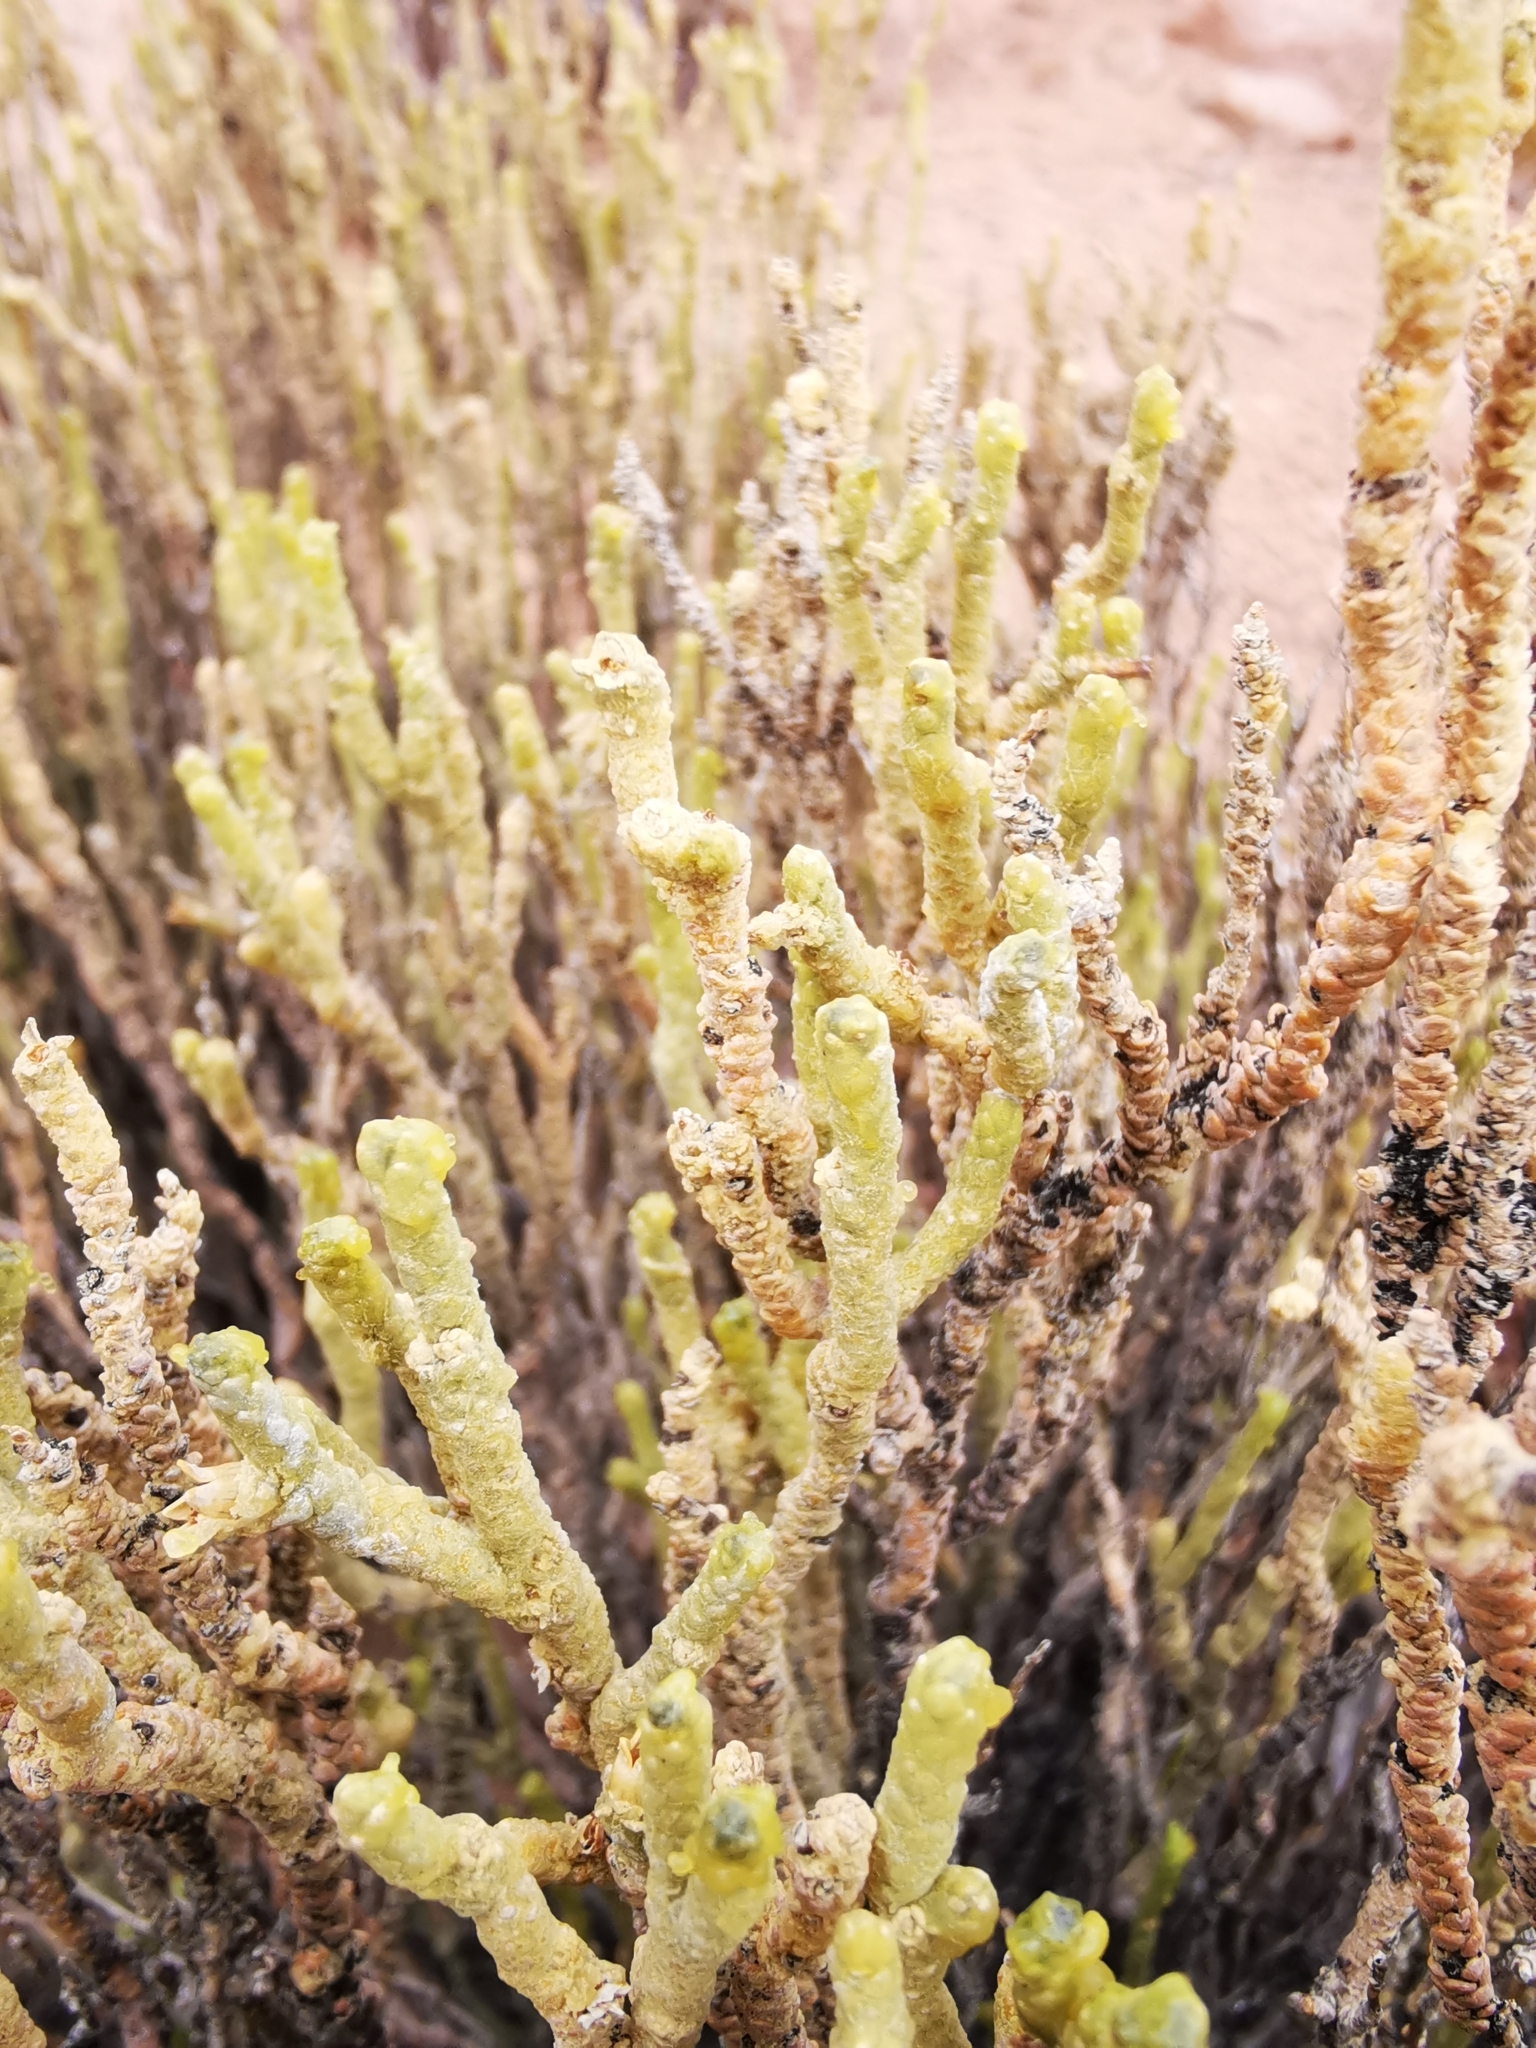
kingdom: Plantae
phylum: Tracheophyta
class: Magnoliopsida
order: Solanales
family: Solanaceae
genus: Fabiana
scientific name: Fabiana squamata
